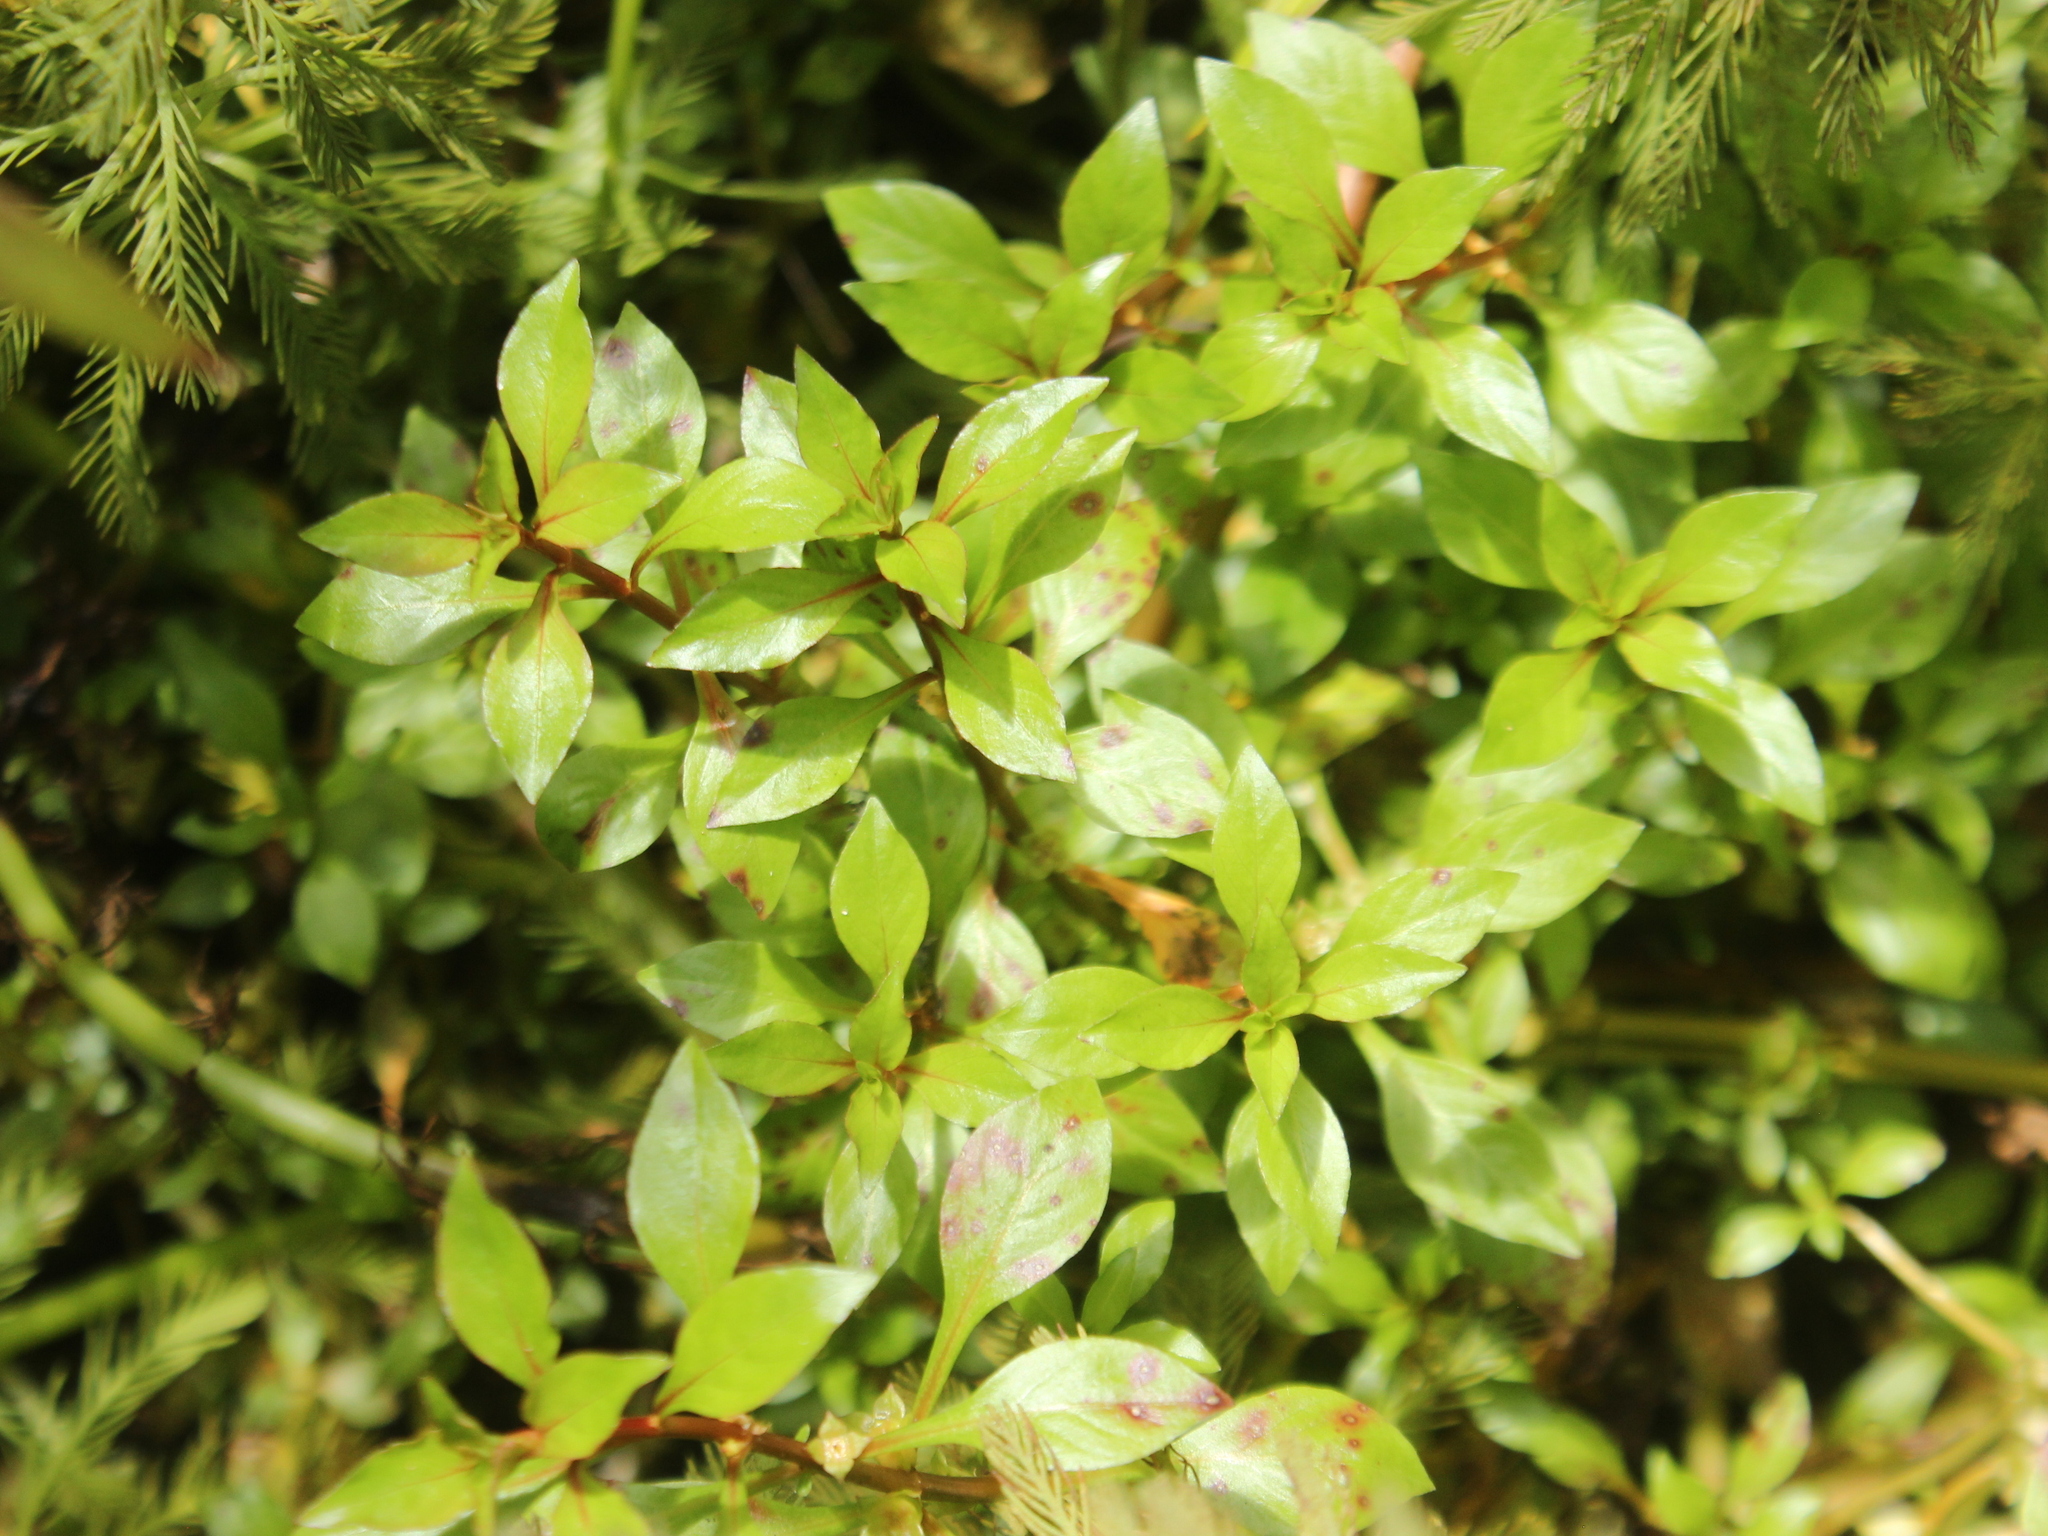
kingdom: Plantae
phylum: Tracheophyta
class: Magnoliopsida
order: Myrtales
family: Onagraceae
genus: Ludwigia
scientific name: Ludwigia palustris
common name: Hampshire-purslane
